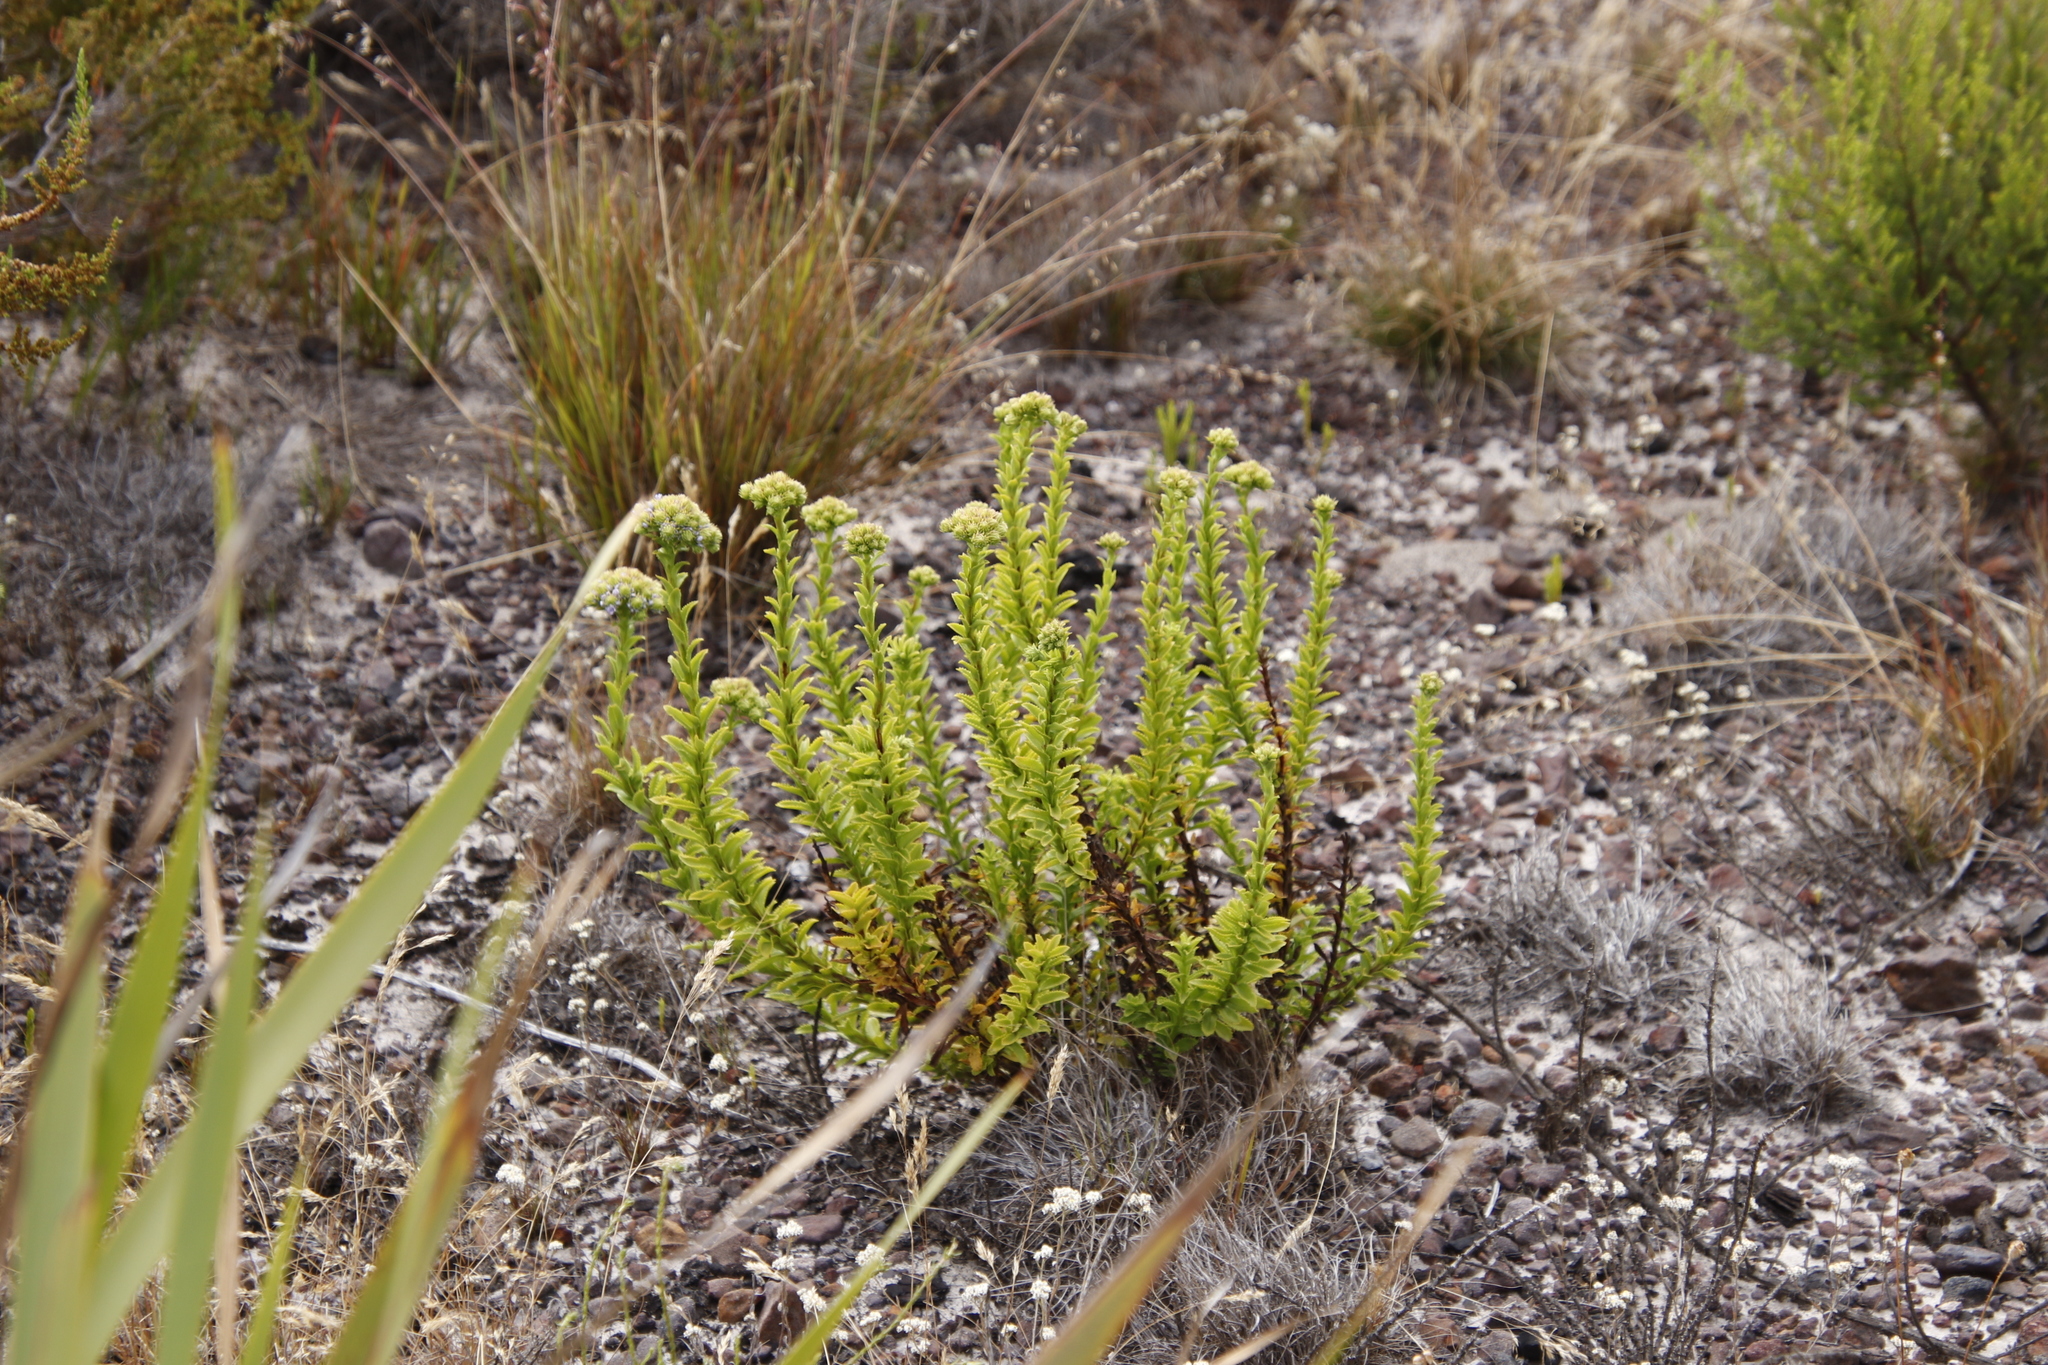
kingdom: Plantae
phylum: Tracheophyta
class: Magnoliopsida
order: Lamiales
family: Scrophulariaceae
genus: Pseudoselago
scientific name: Pseudoselago serrata
